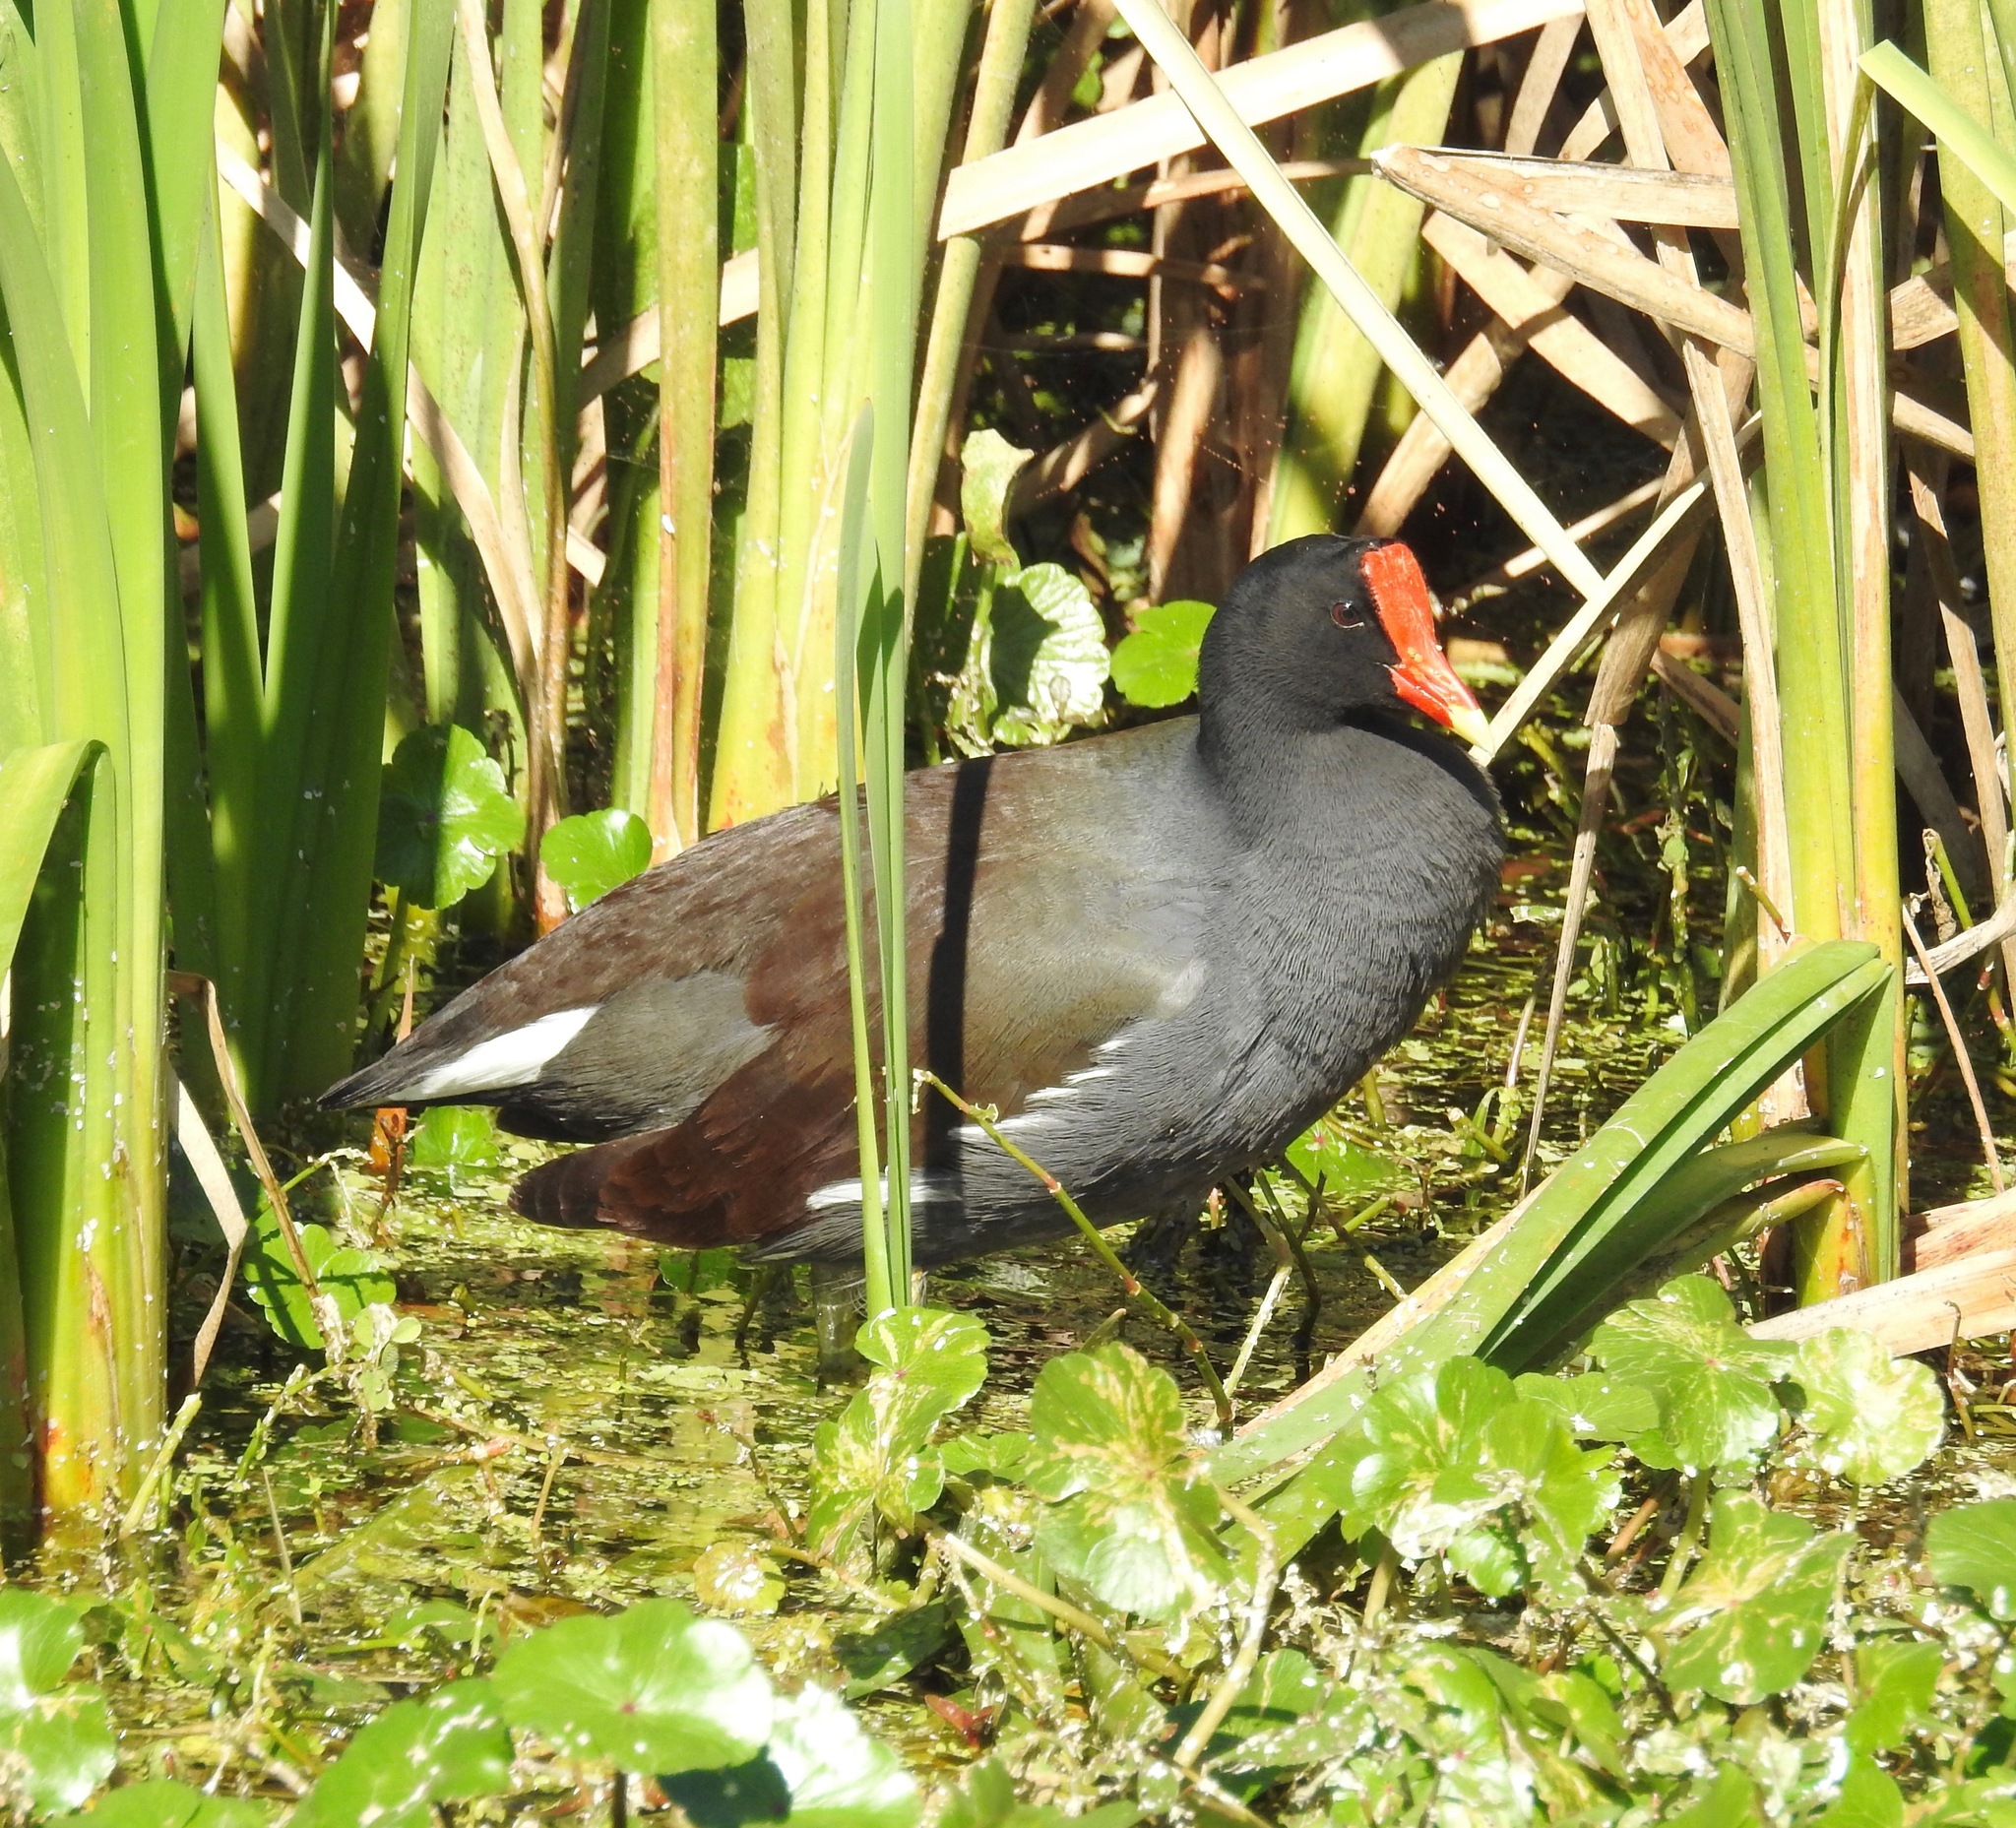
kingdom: Animalia
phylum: Chordata
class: Aves
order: Gruiformes
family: Rallidae
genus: Gallinula
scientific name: Gallinula chloropus
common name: Common moorhen
